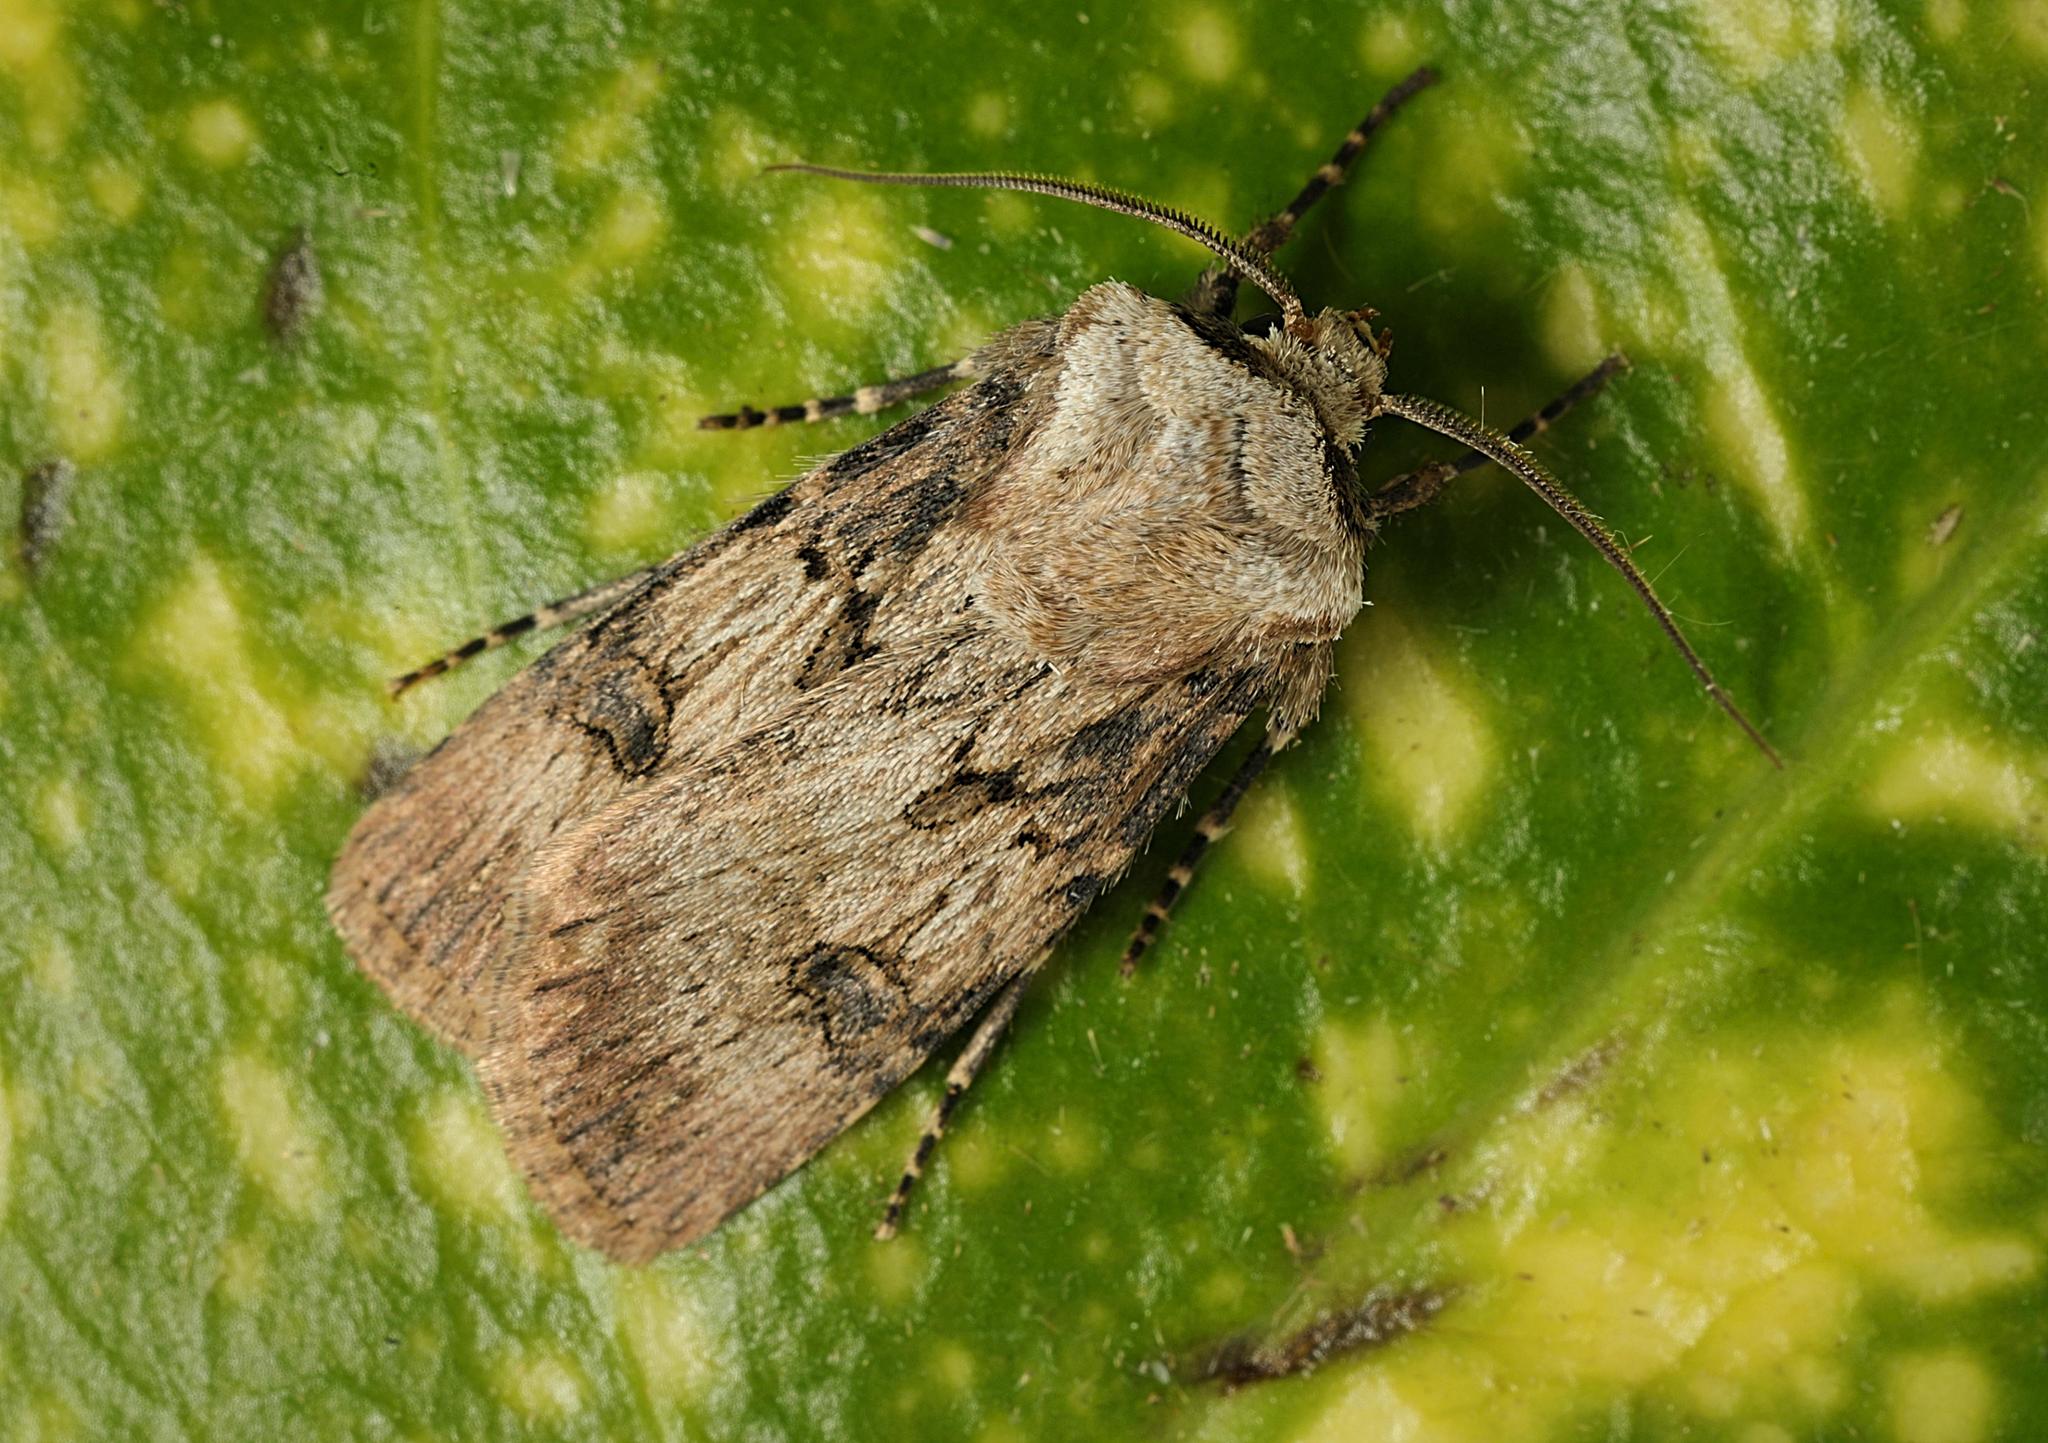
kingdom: Animalia
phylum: Arthropoda
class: Insecta
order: Lepidoptera
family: Noctuidae
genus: Agrotis
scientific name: Agrotis puta
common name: Shuttle-shaped dart
